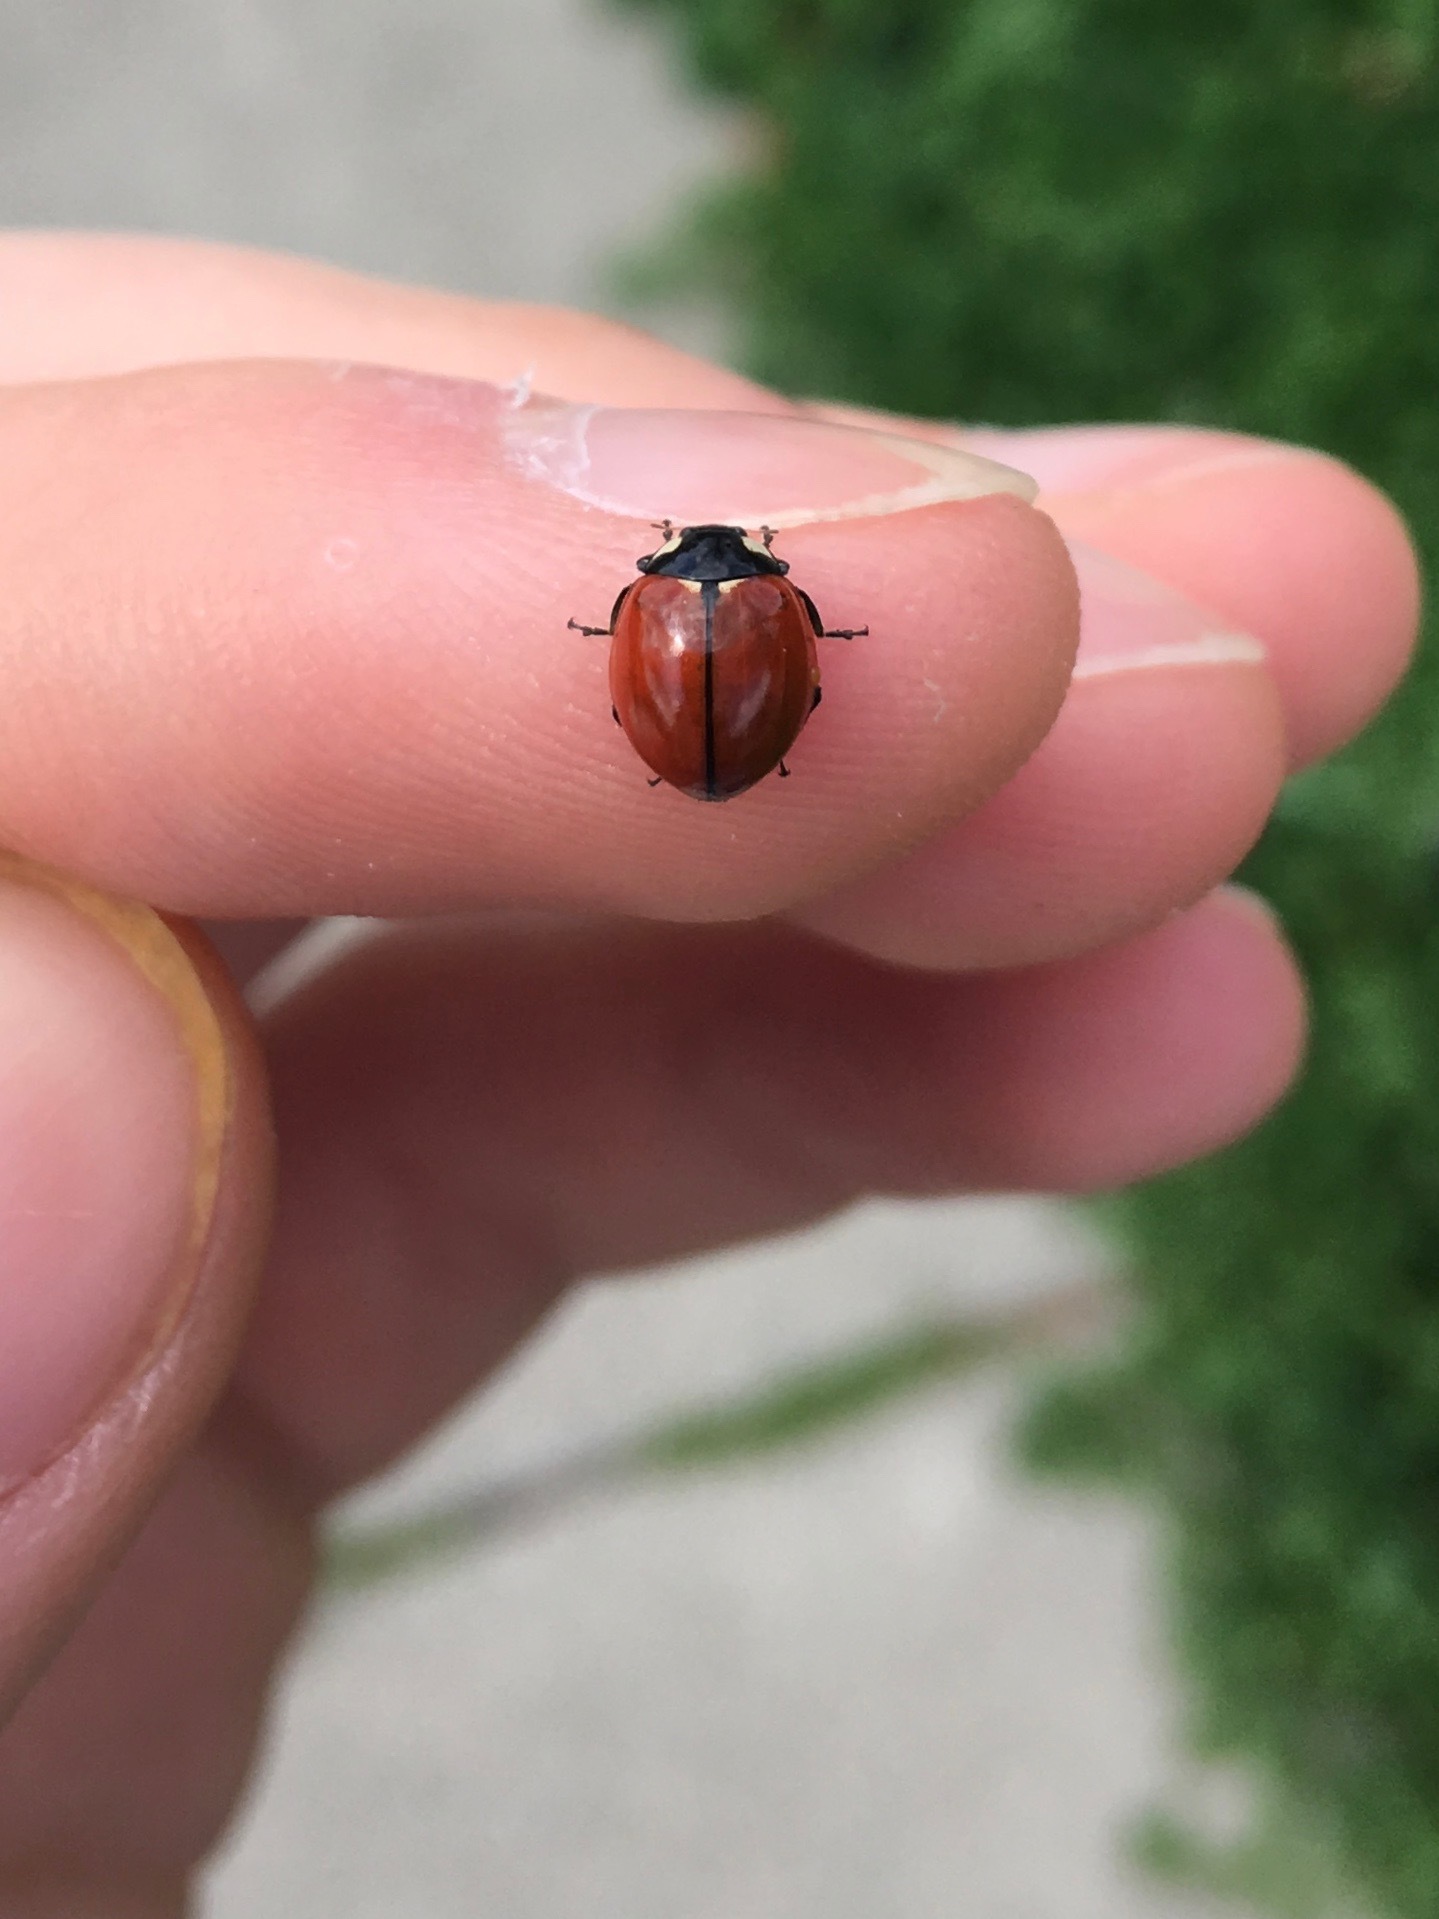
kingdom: Animalia
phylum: Arthropoda
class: Insecta
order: Coleoptera
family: Coccinellidae
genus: Coccinella
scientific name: Coccinella californica
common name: Lady beetle
